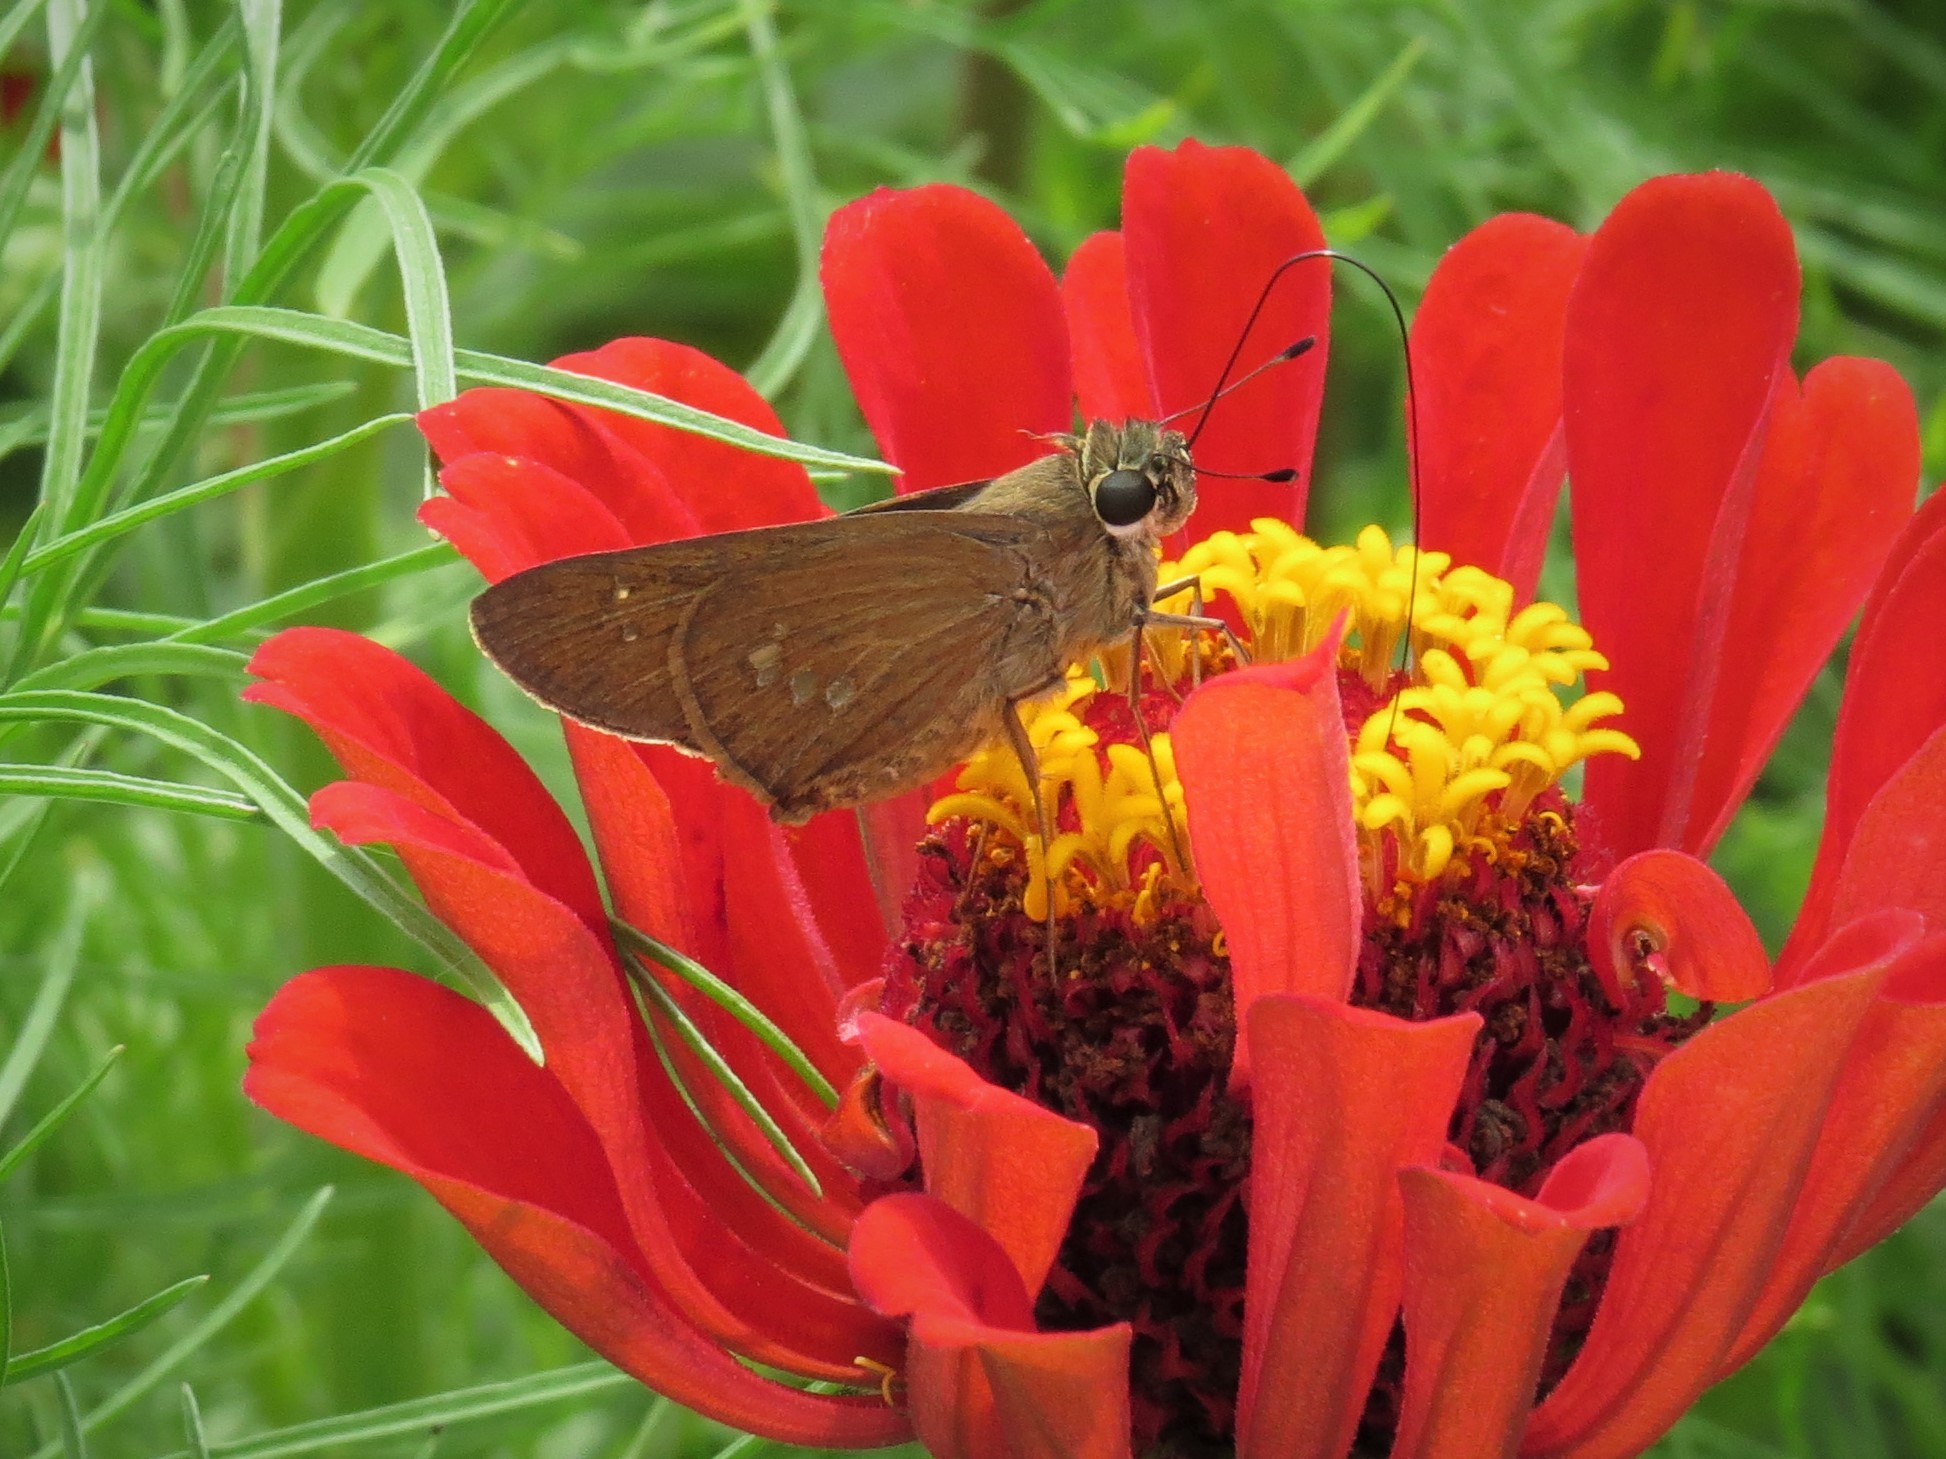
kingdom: Animalia
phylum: Arthropoda
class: Insecta
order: Lepidoptera
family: Hesperiidae
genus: Calpodes
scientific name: Calpodes ethlius
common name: Brazilian skipper
